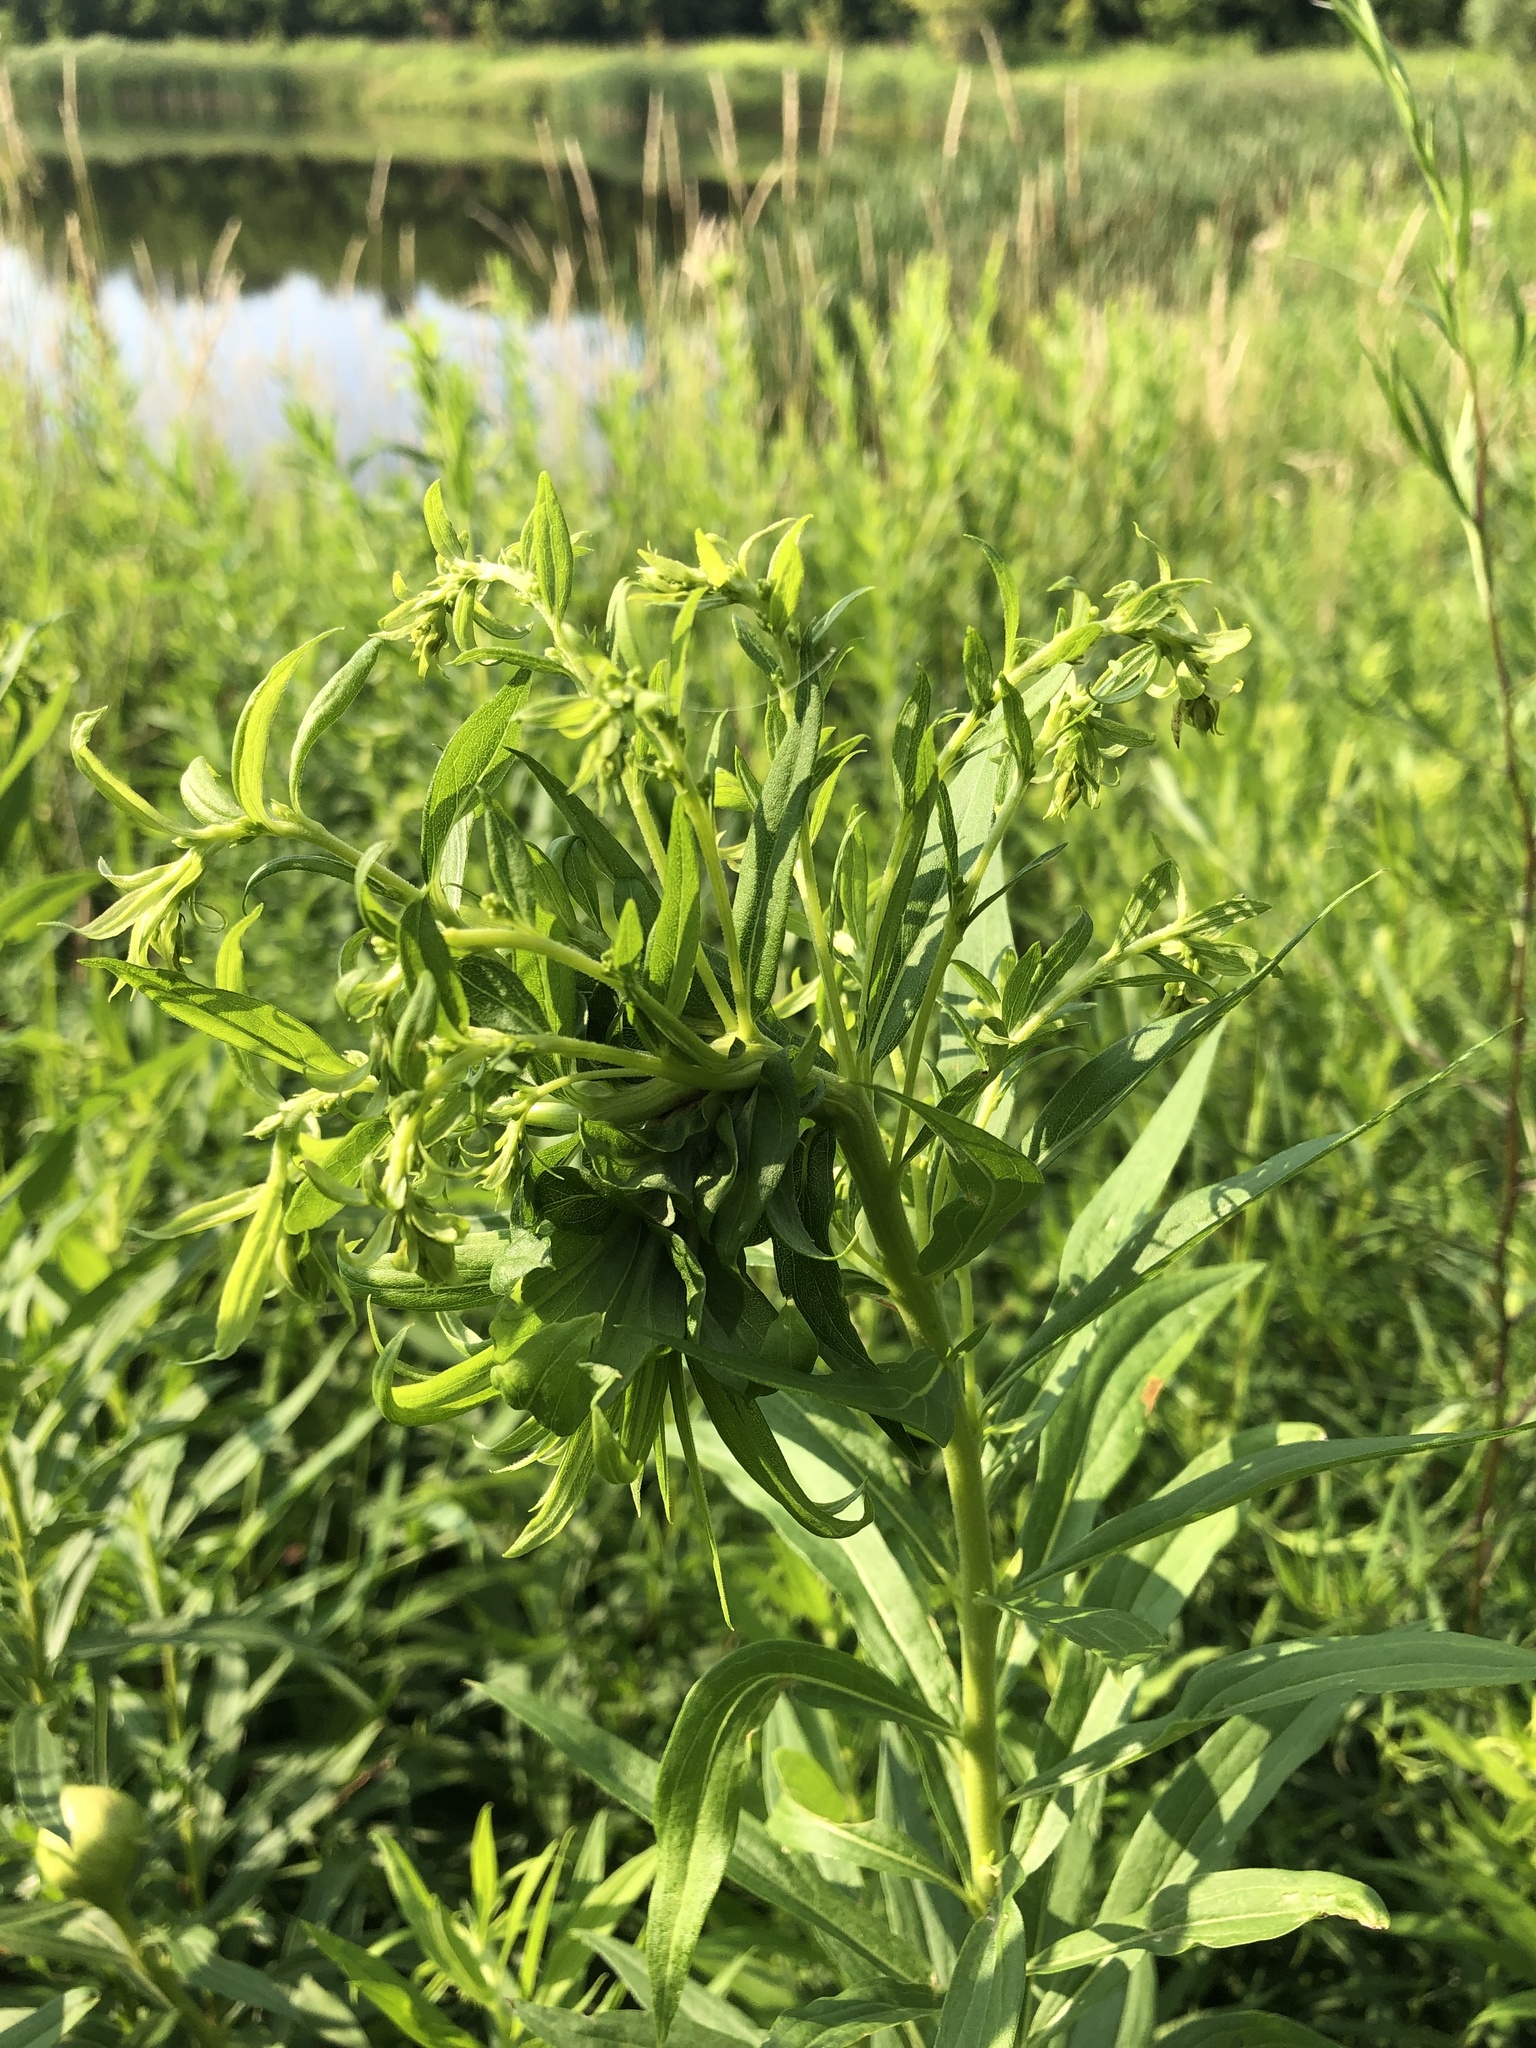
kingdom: Animalia
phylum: Arthropoda
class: Insecta
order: Diptera
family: Cecidomyiidae
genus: Rhopalomyia
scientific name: Rhopalomyia solidaginis
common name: Goldenrod bunch gall midge
